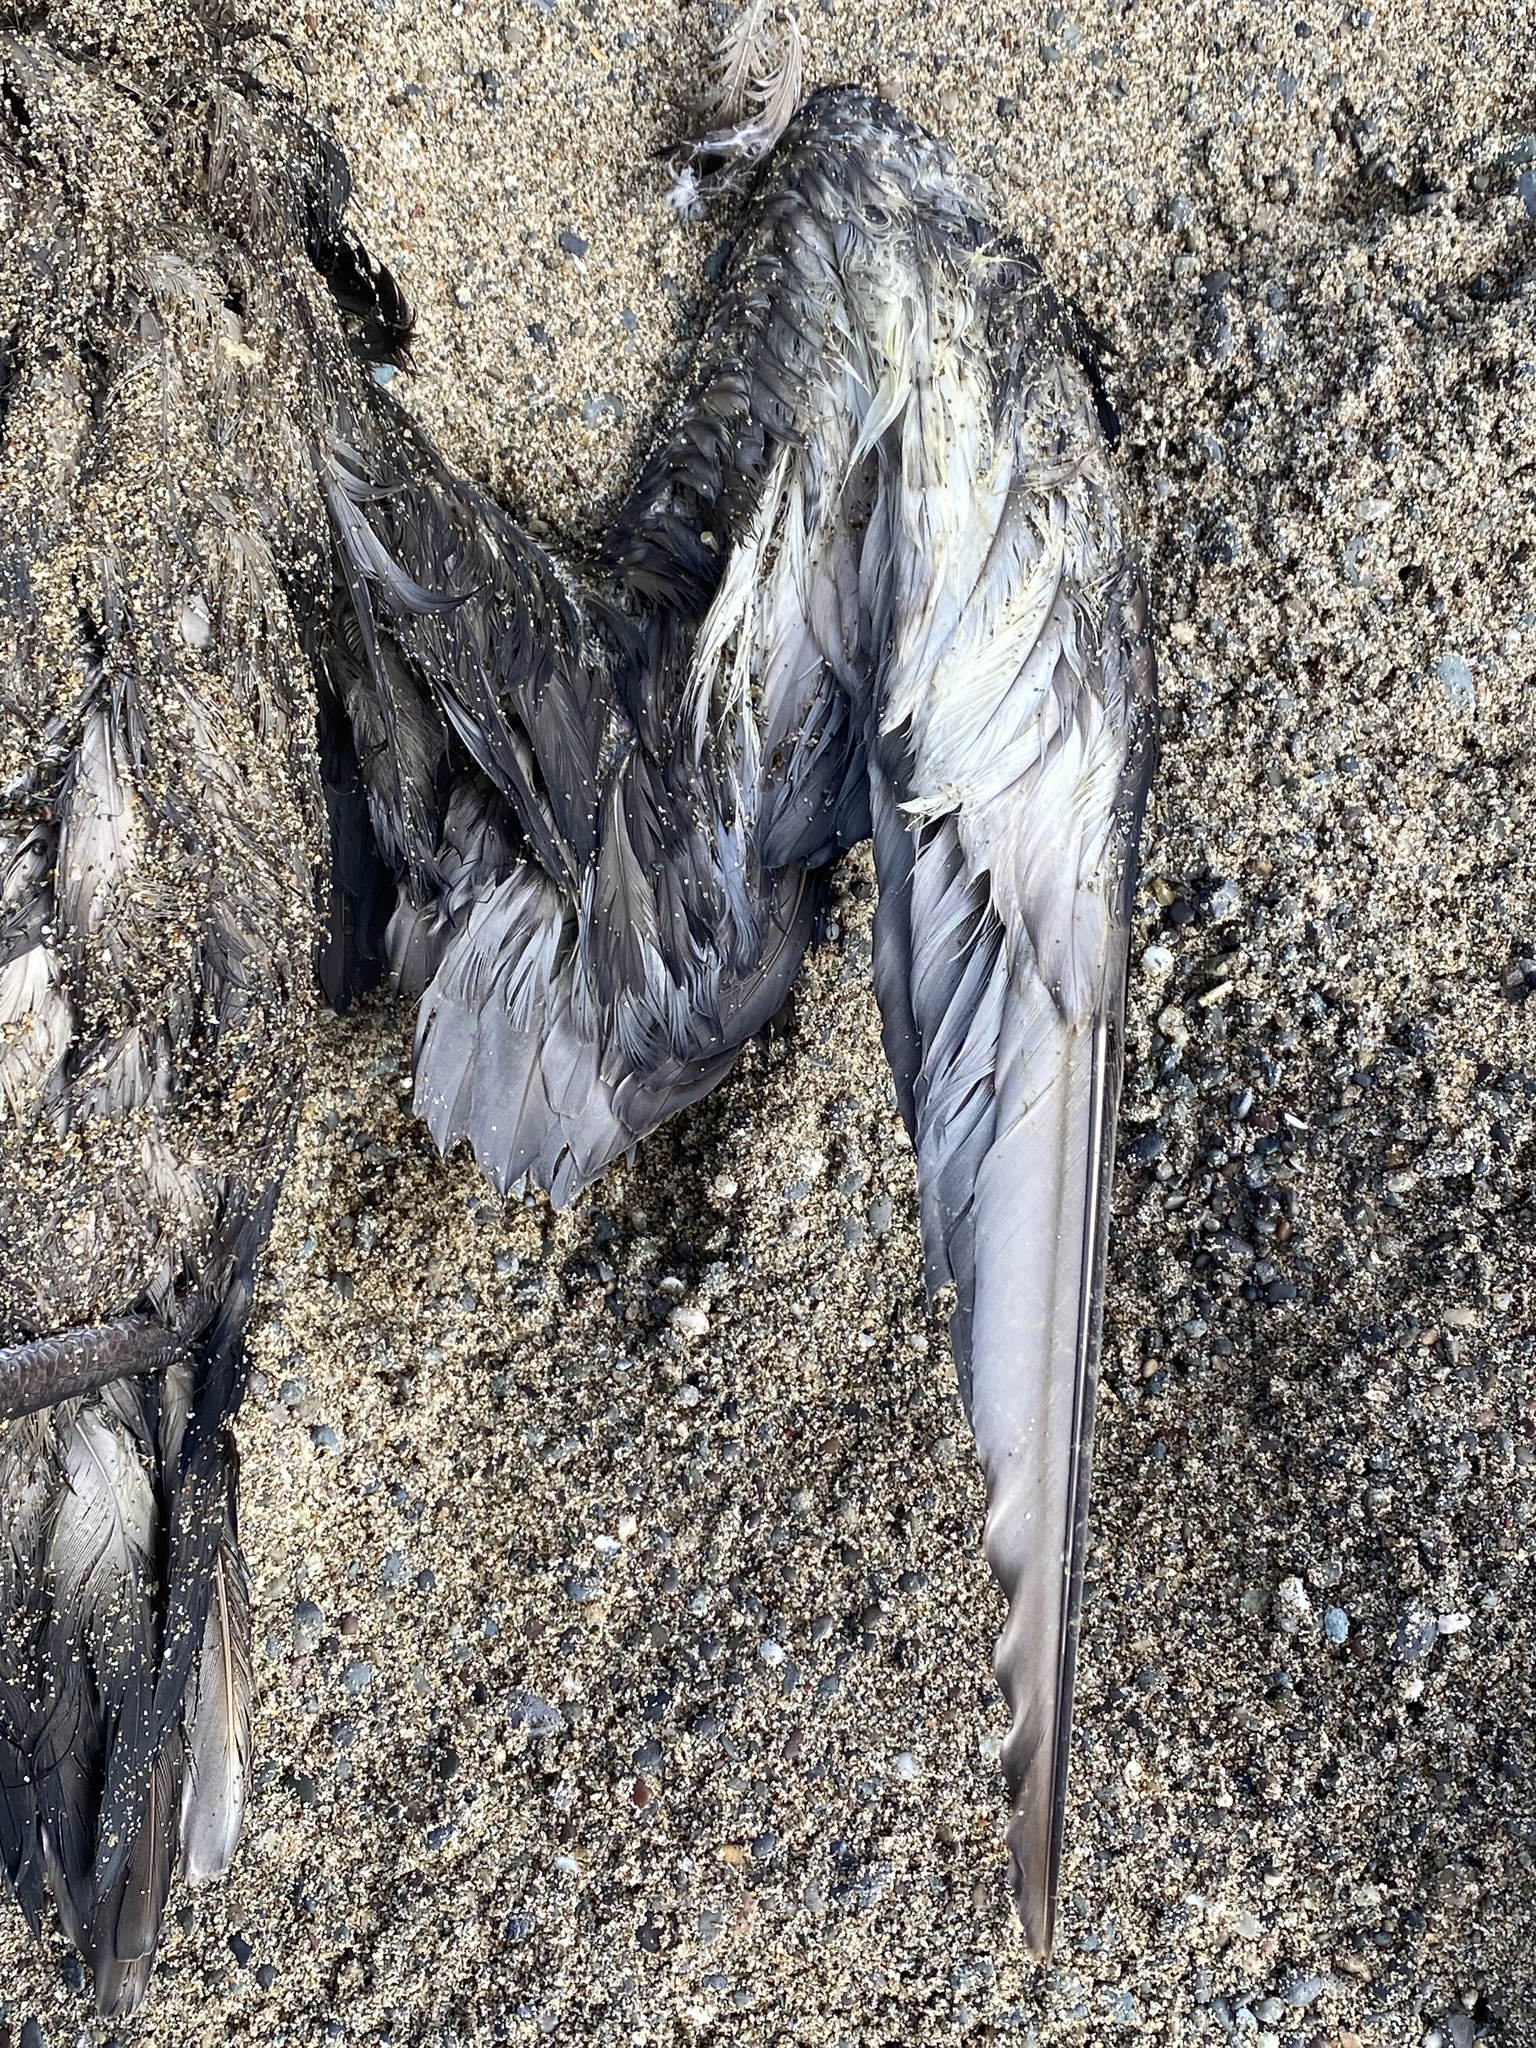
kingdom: Animalia
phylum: Chordata
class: Aves
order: Procellariiformes
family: Procellariidae
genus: Puffinus
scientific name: Puffinus griseus
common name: Sooty shearwater
